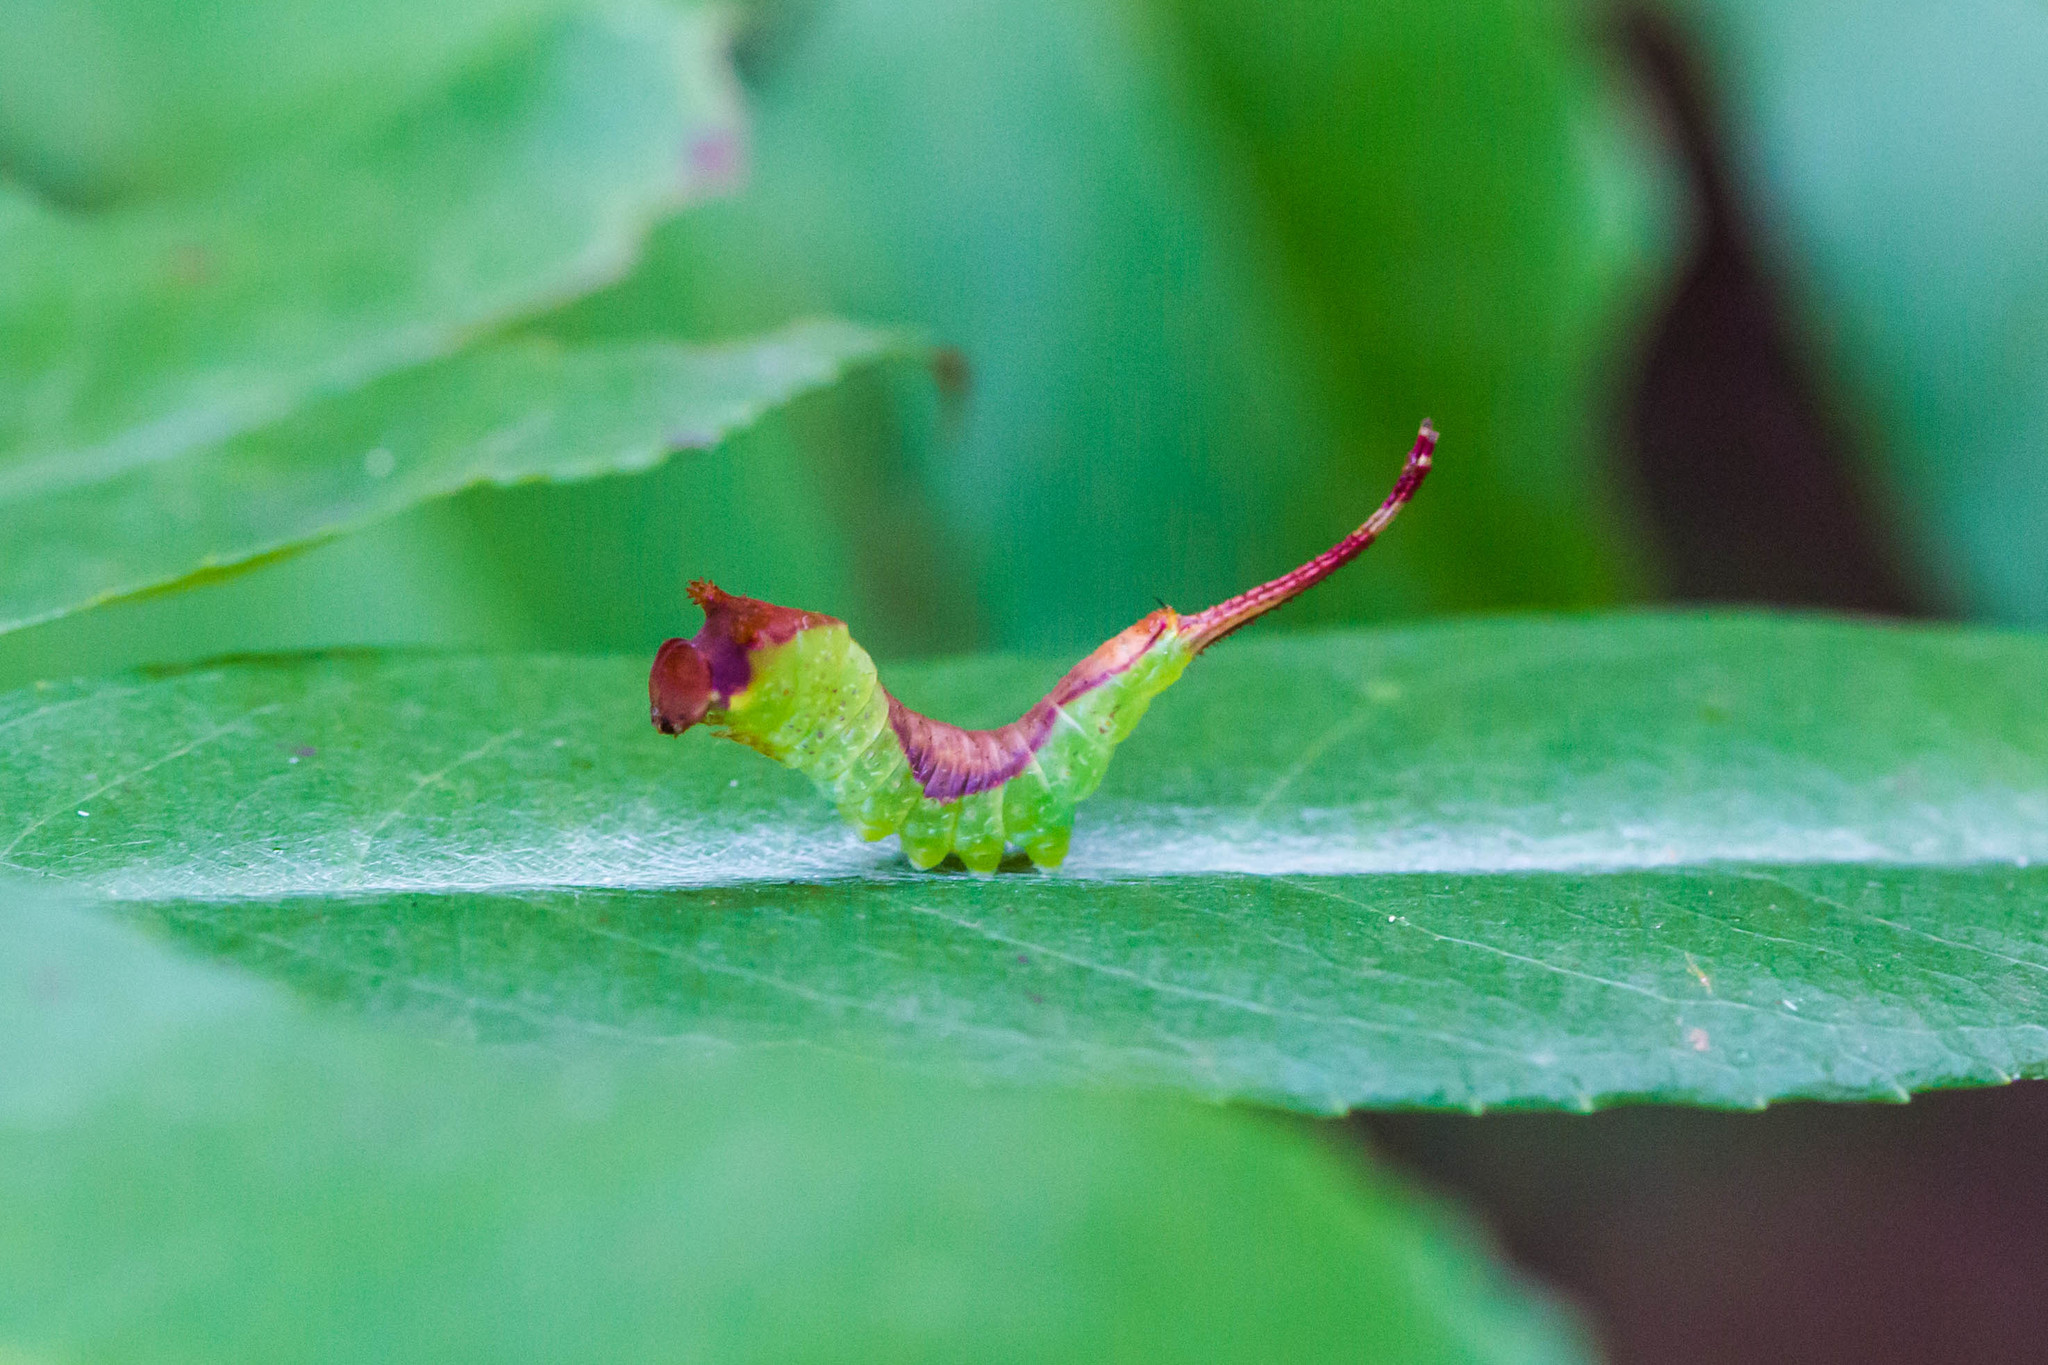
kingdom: Animalia
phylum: Arthropoda
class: Insecta
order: Lepidoptera
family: Notodontidae
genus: Furcula
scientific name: Furcula borealis
